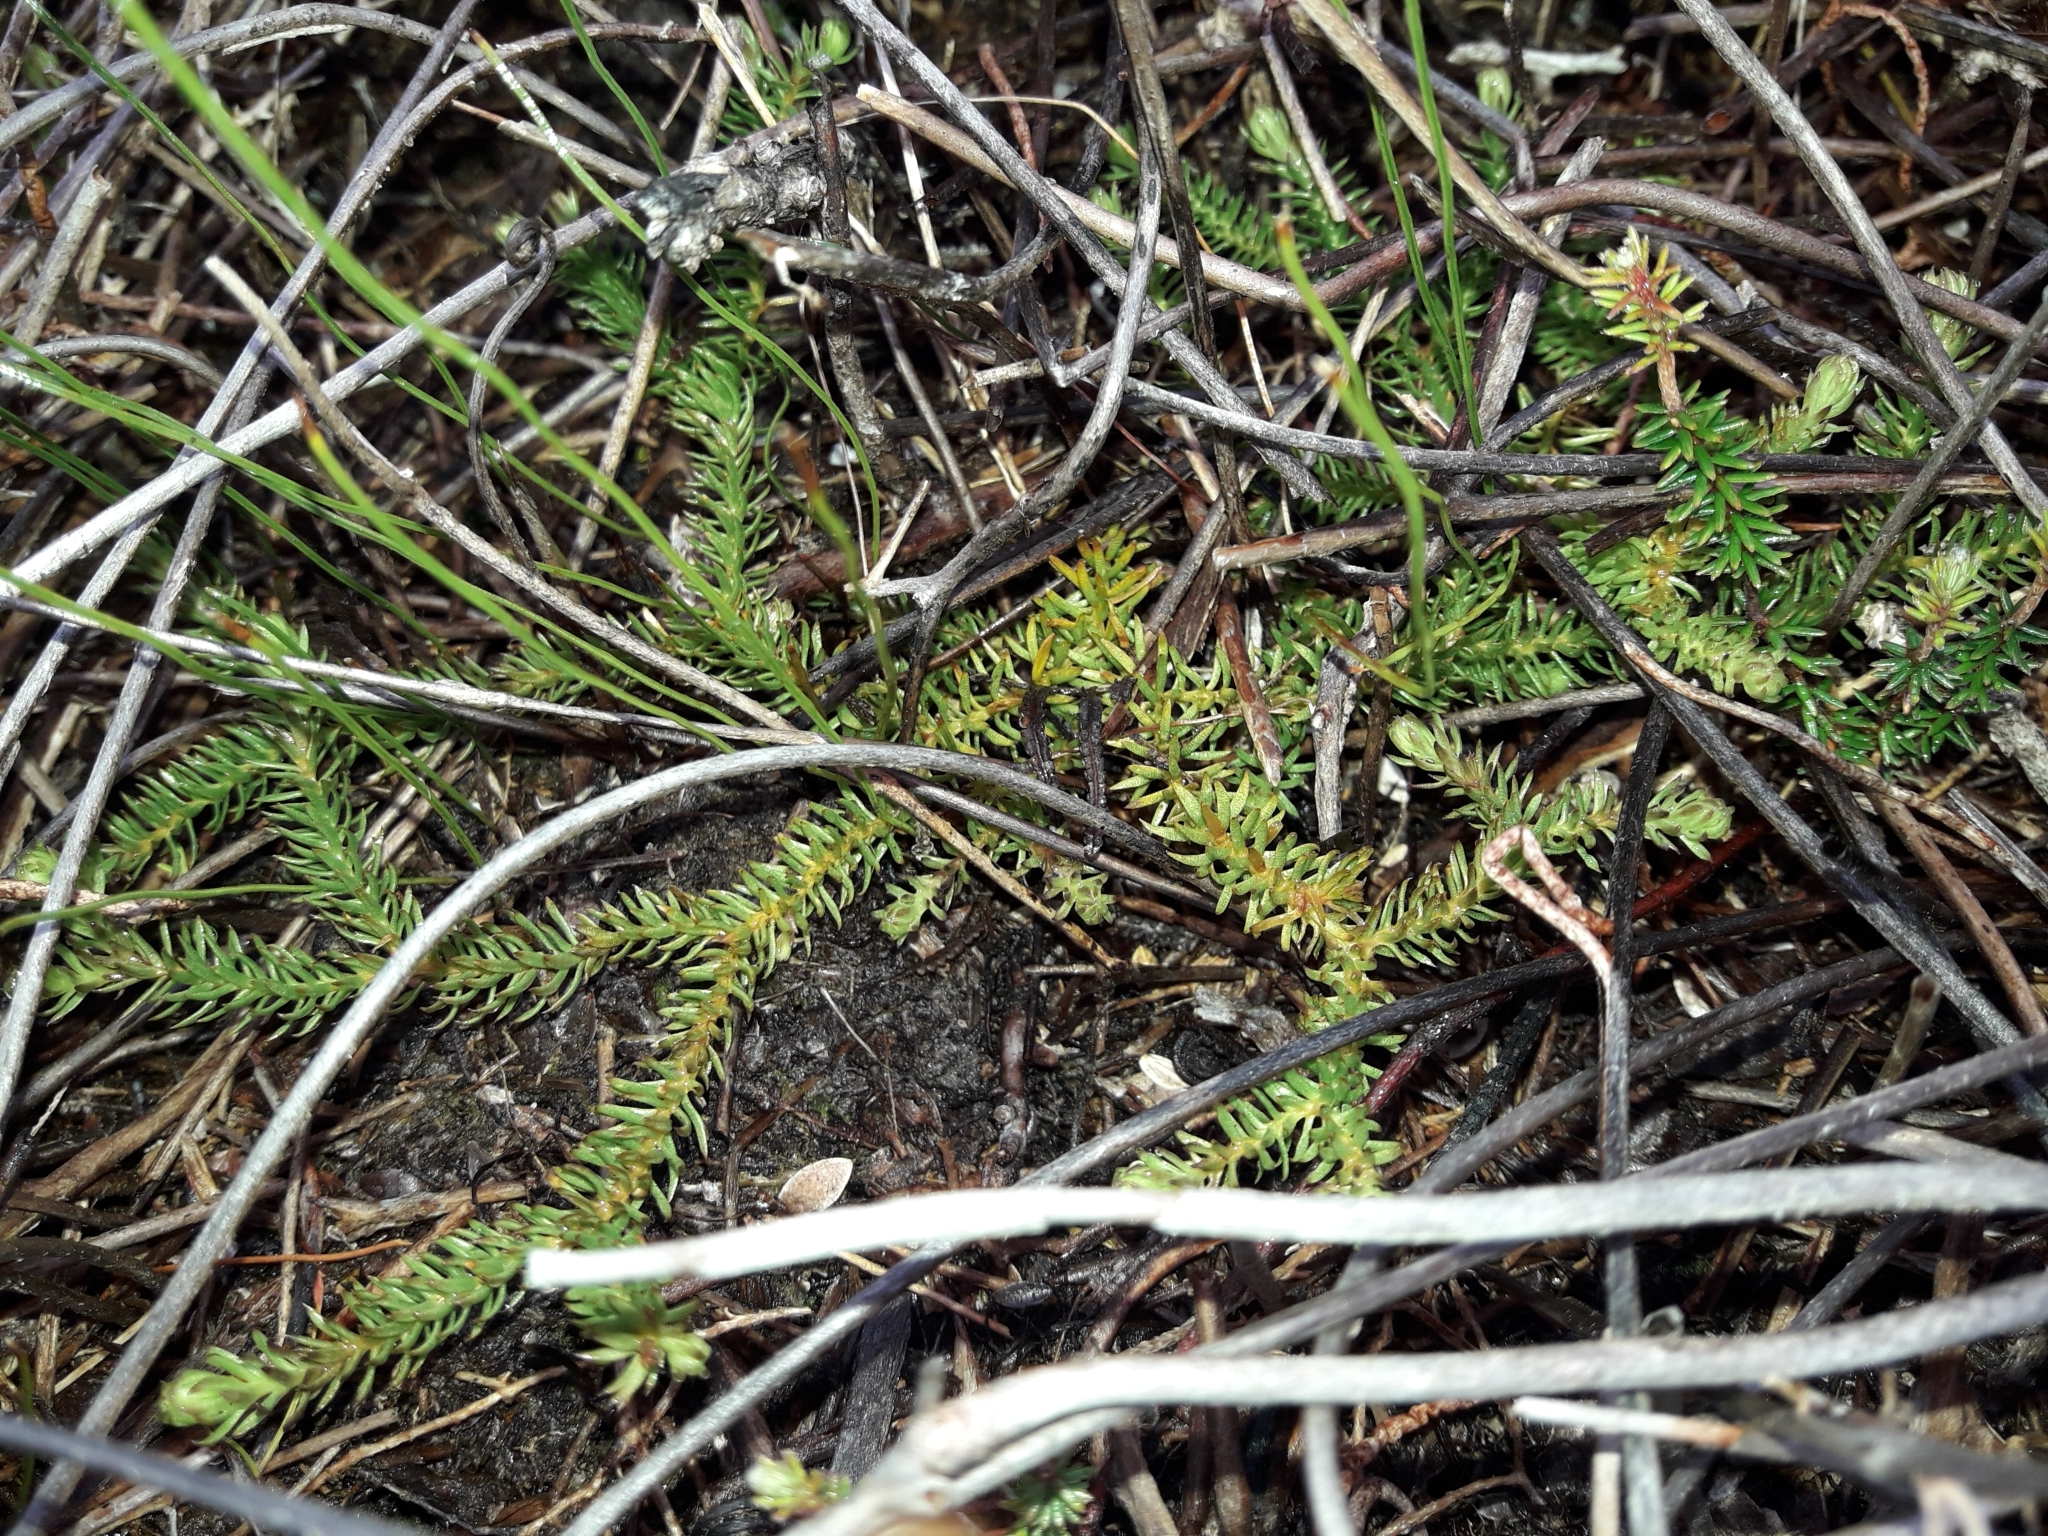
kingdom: Plantae
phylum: Tracheophyta
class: Lycopodiopsida
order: Lycopodiales
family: Lycopodiaceae
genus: Lateristachys
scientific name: Lateristachys diffusa
